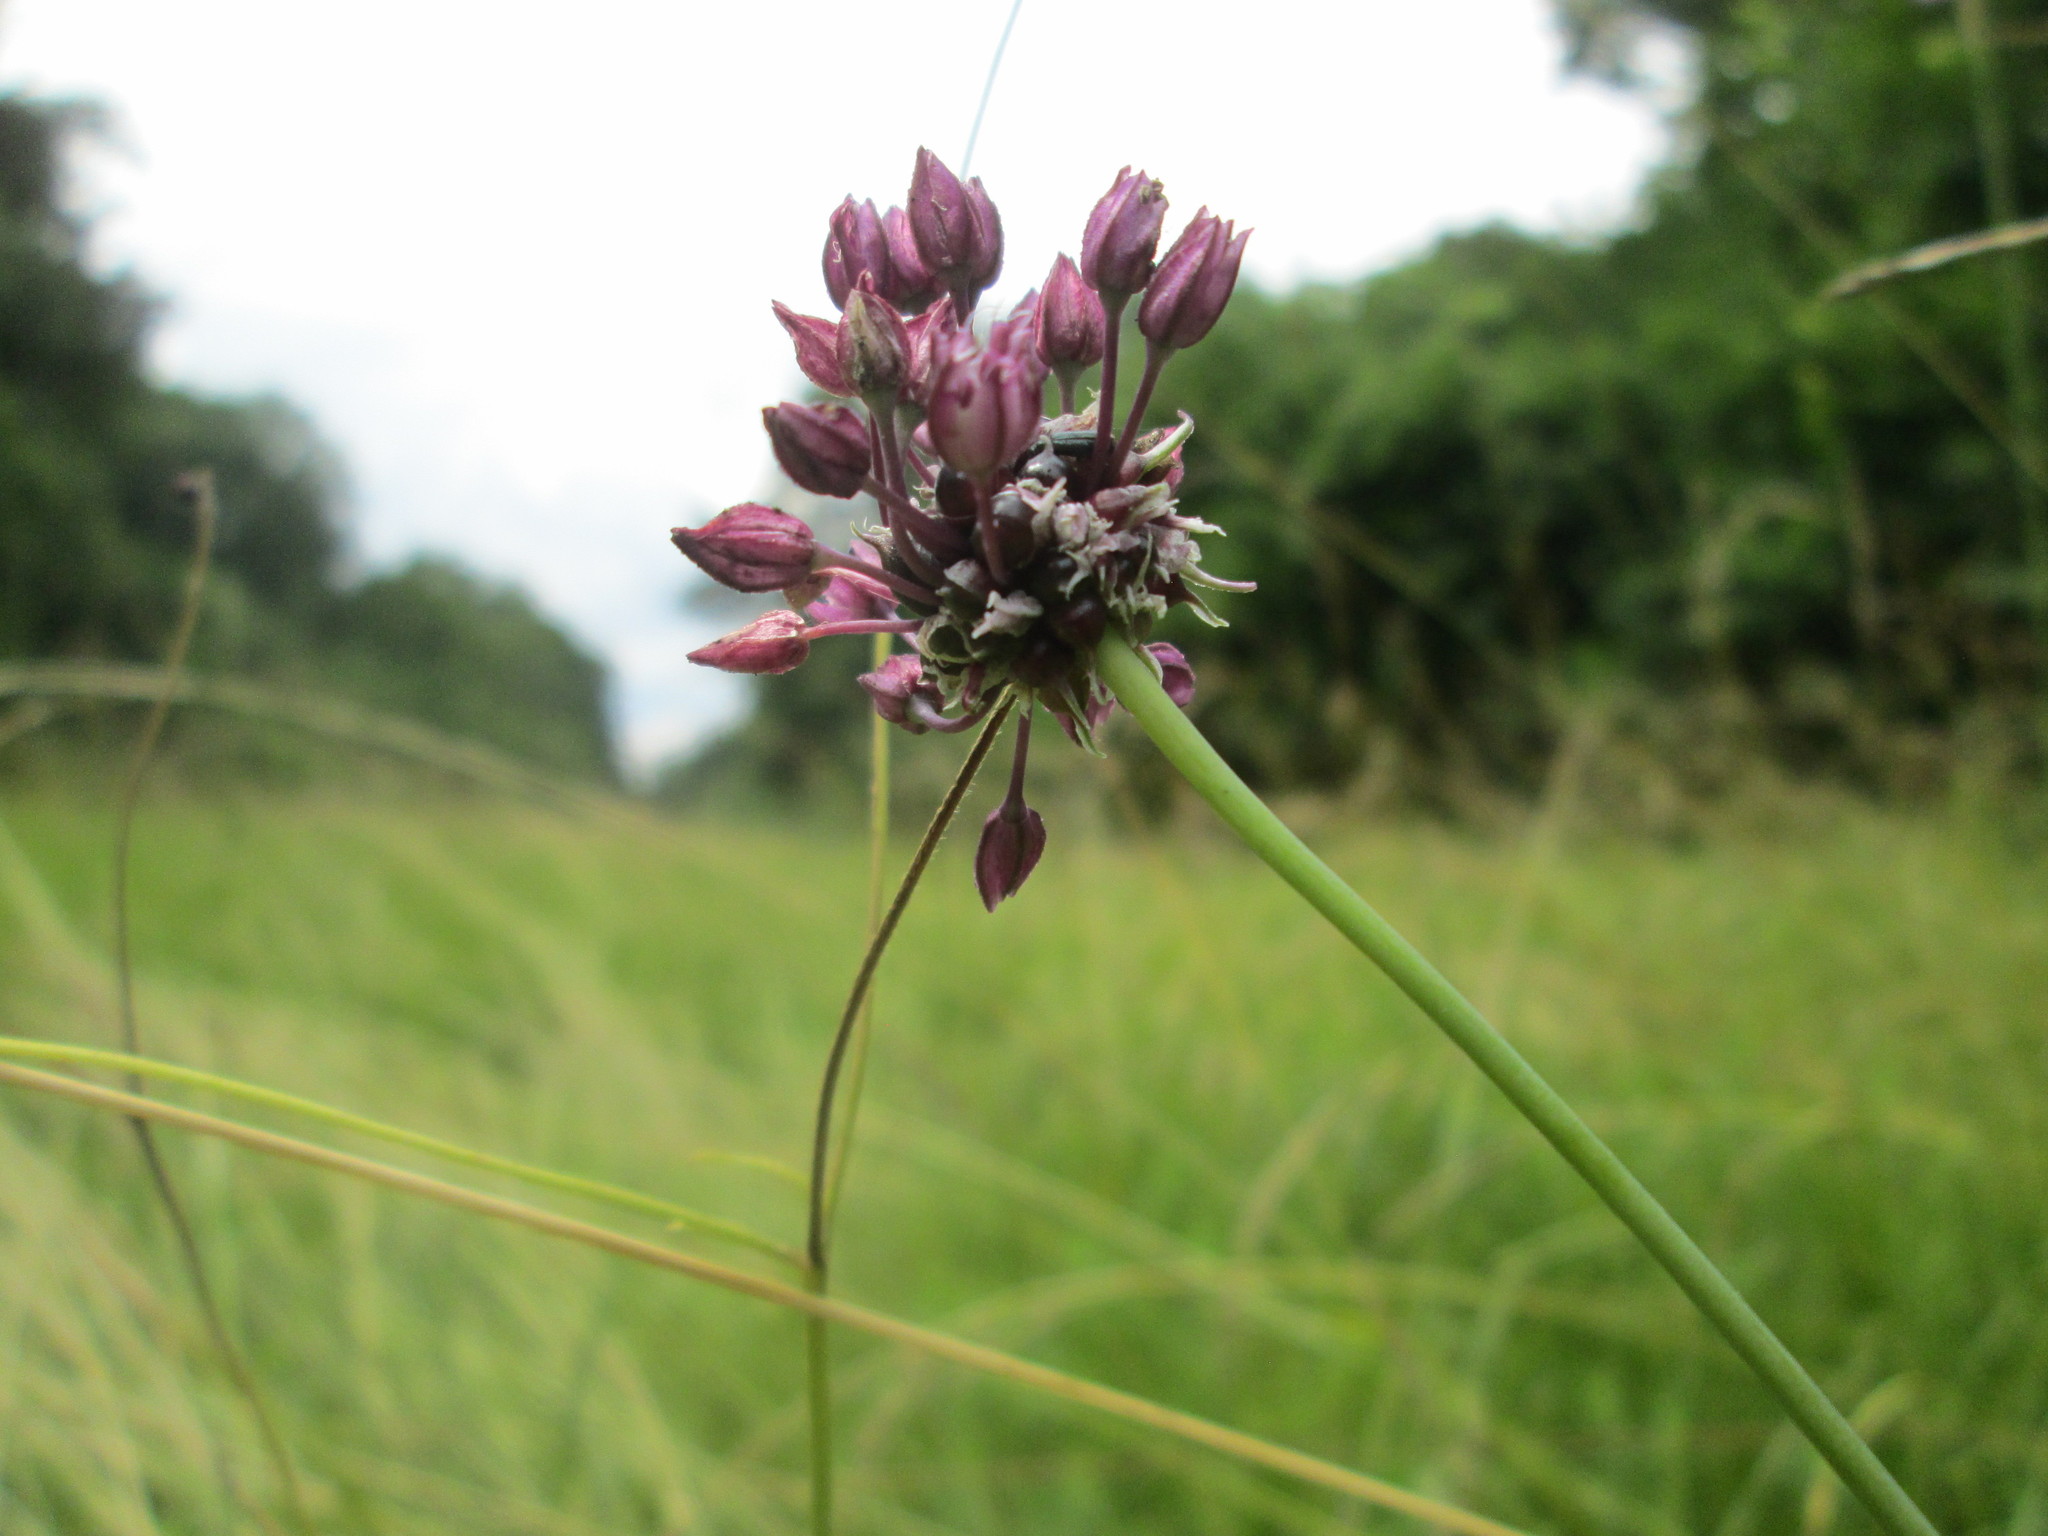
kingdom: Plantae
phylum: Tracheophyta
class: Liliopsida
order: Asparagales
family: Amaryllidaceae
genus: Allium
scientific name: Allium scorodoprasum
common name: Sand leek
